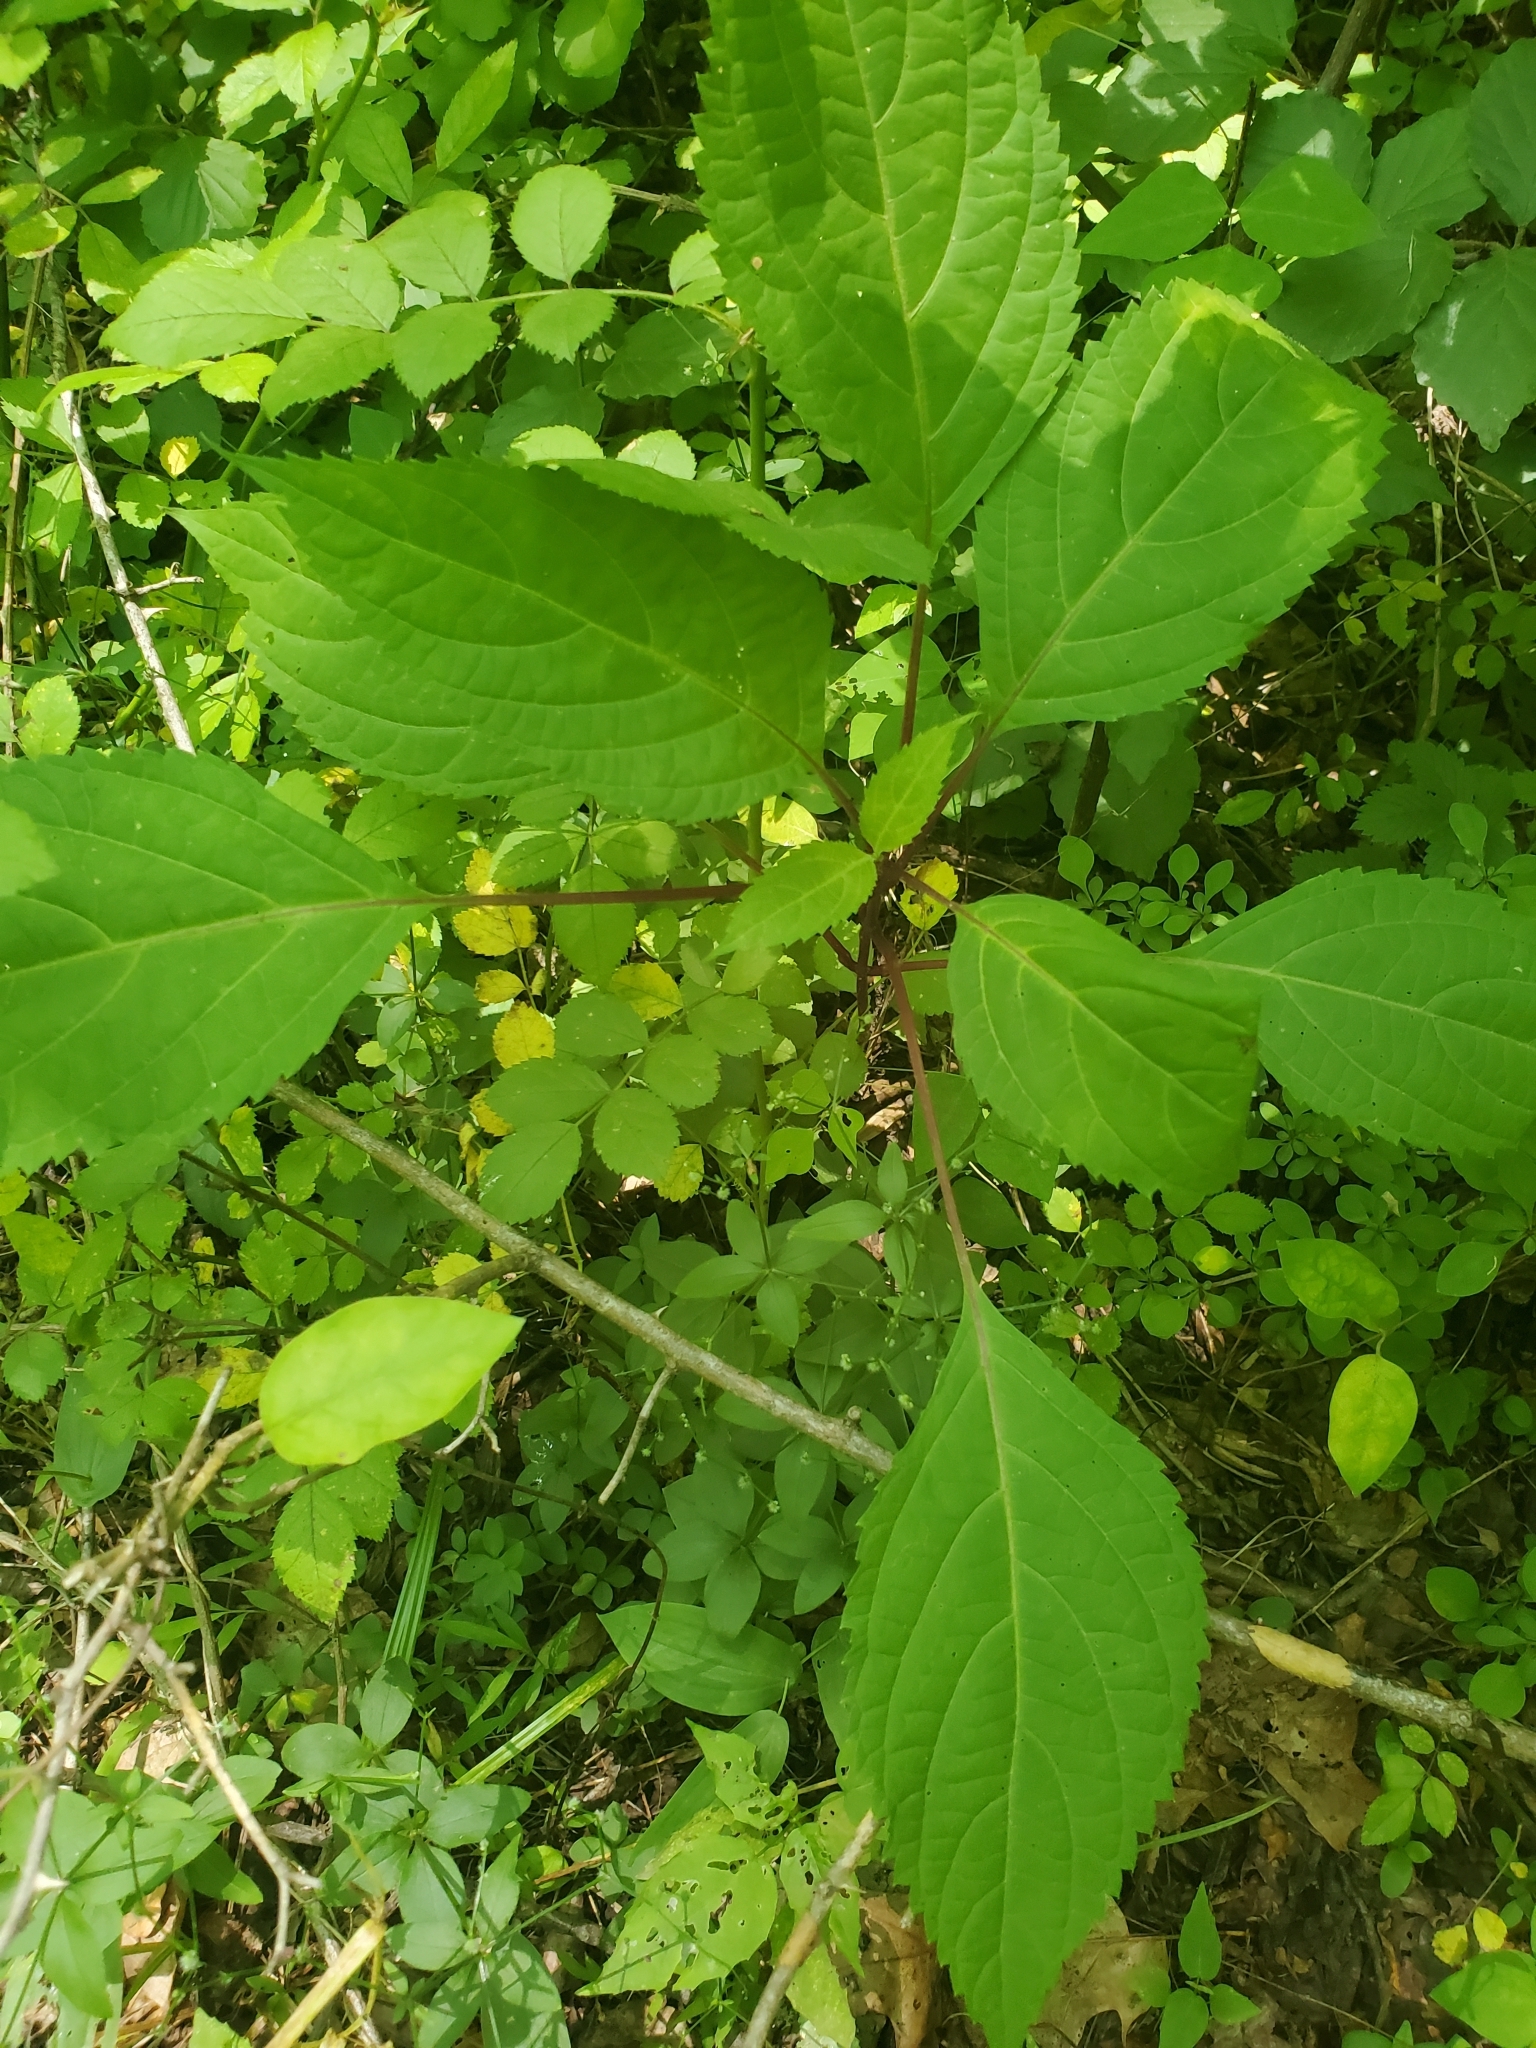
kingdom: Plantae
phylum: Tracheophyta
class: Magnoliopsida
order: Lamiales
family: Lamiaceae
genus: Collinsonia
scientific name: Collinsonia canadensis
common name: Northern horsebalm
